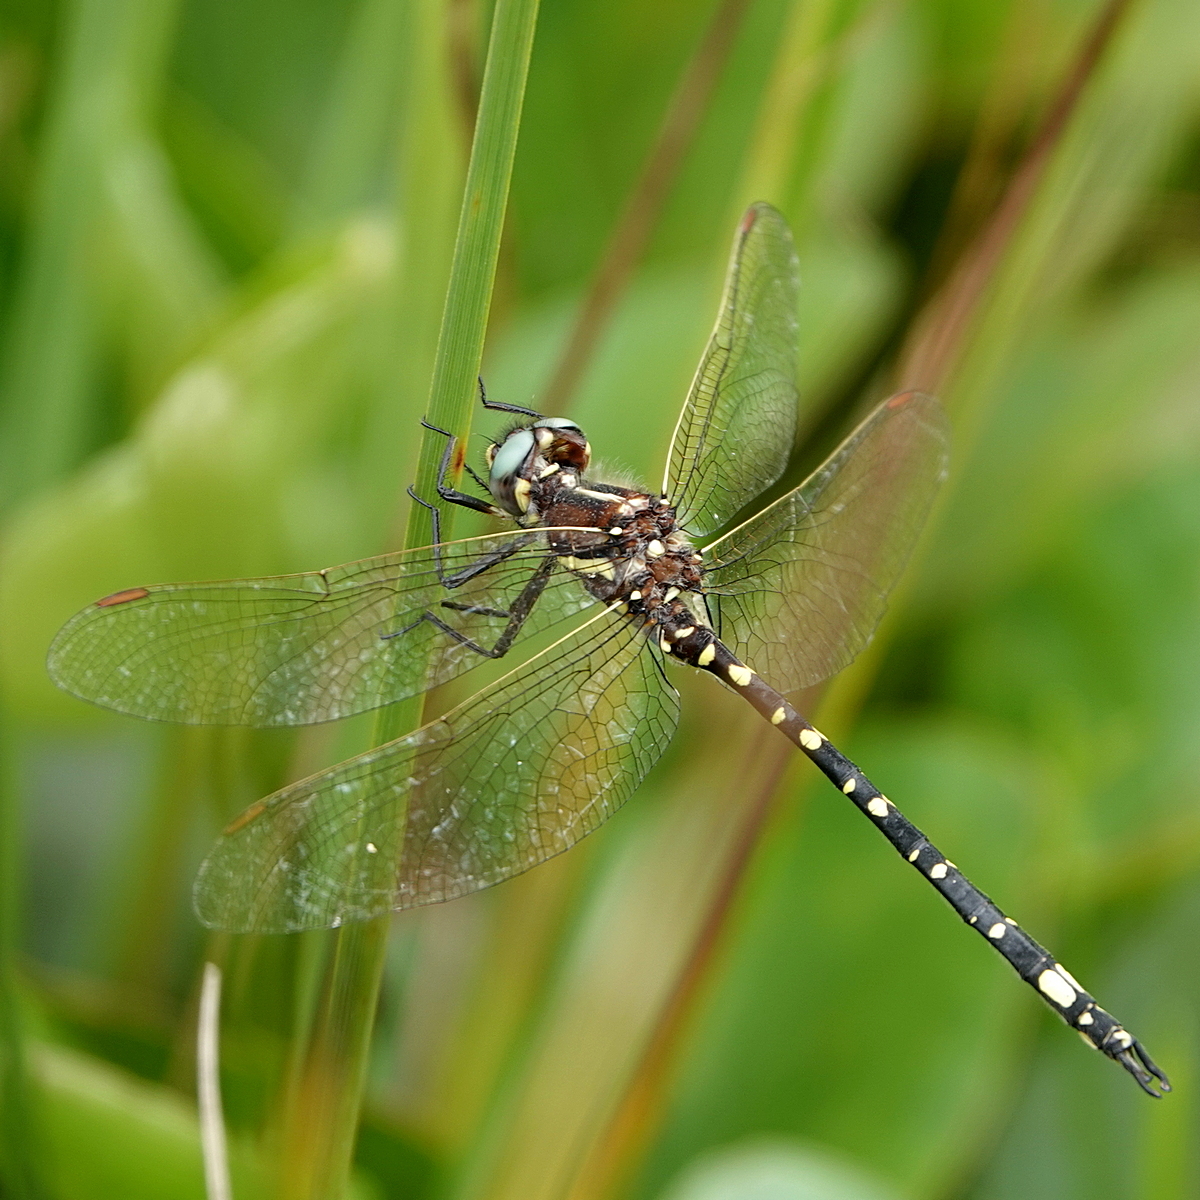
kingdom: Animalia
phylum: Arthropoda
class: Insecta
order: Odonata
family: Synthemistidae
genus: Synthemis
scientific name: Synthemis eustalacta
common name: Swamp tigertail
